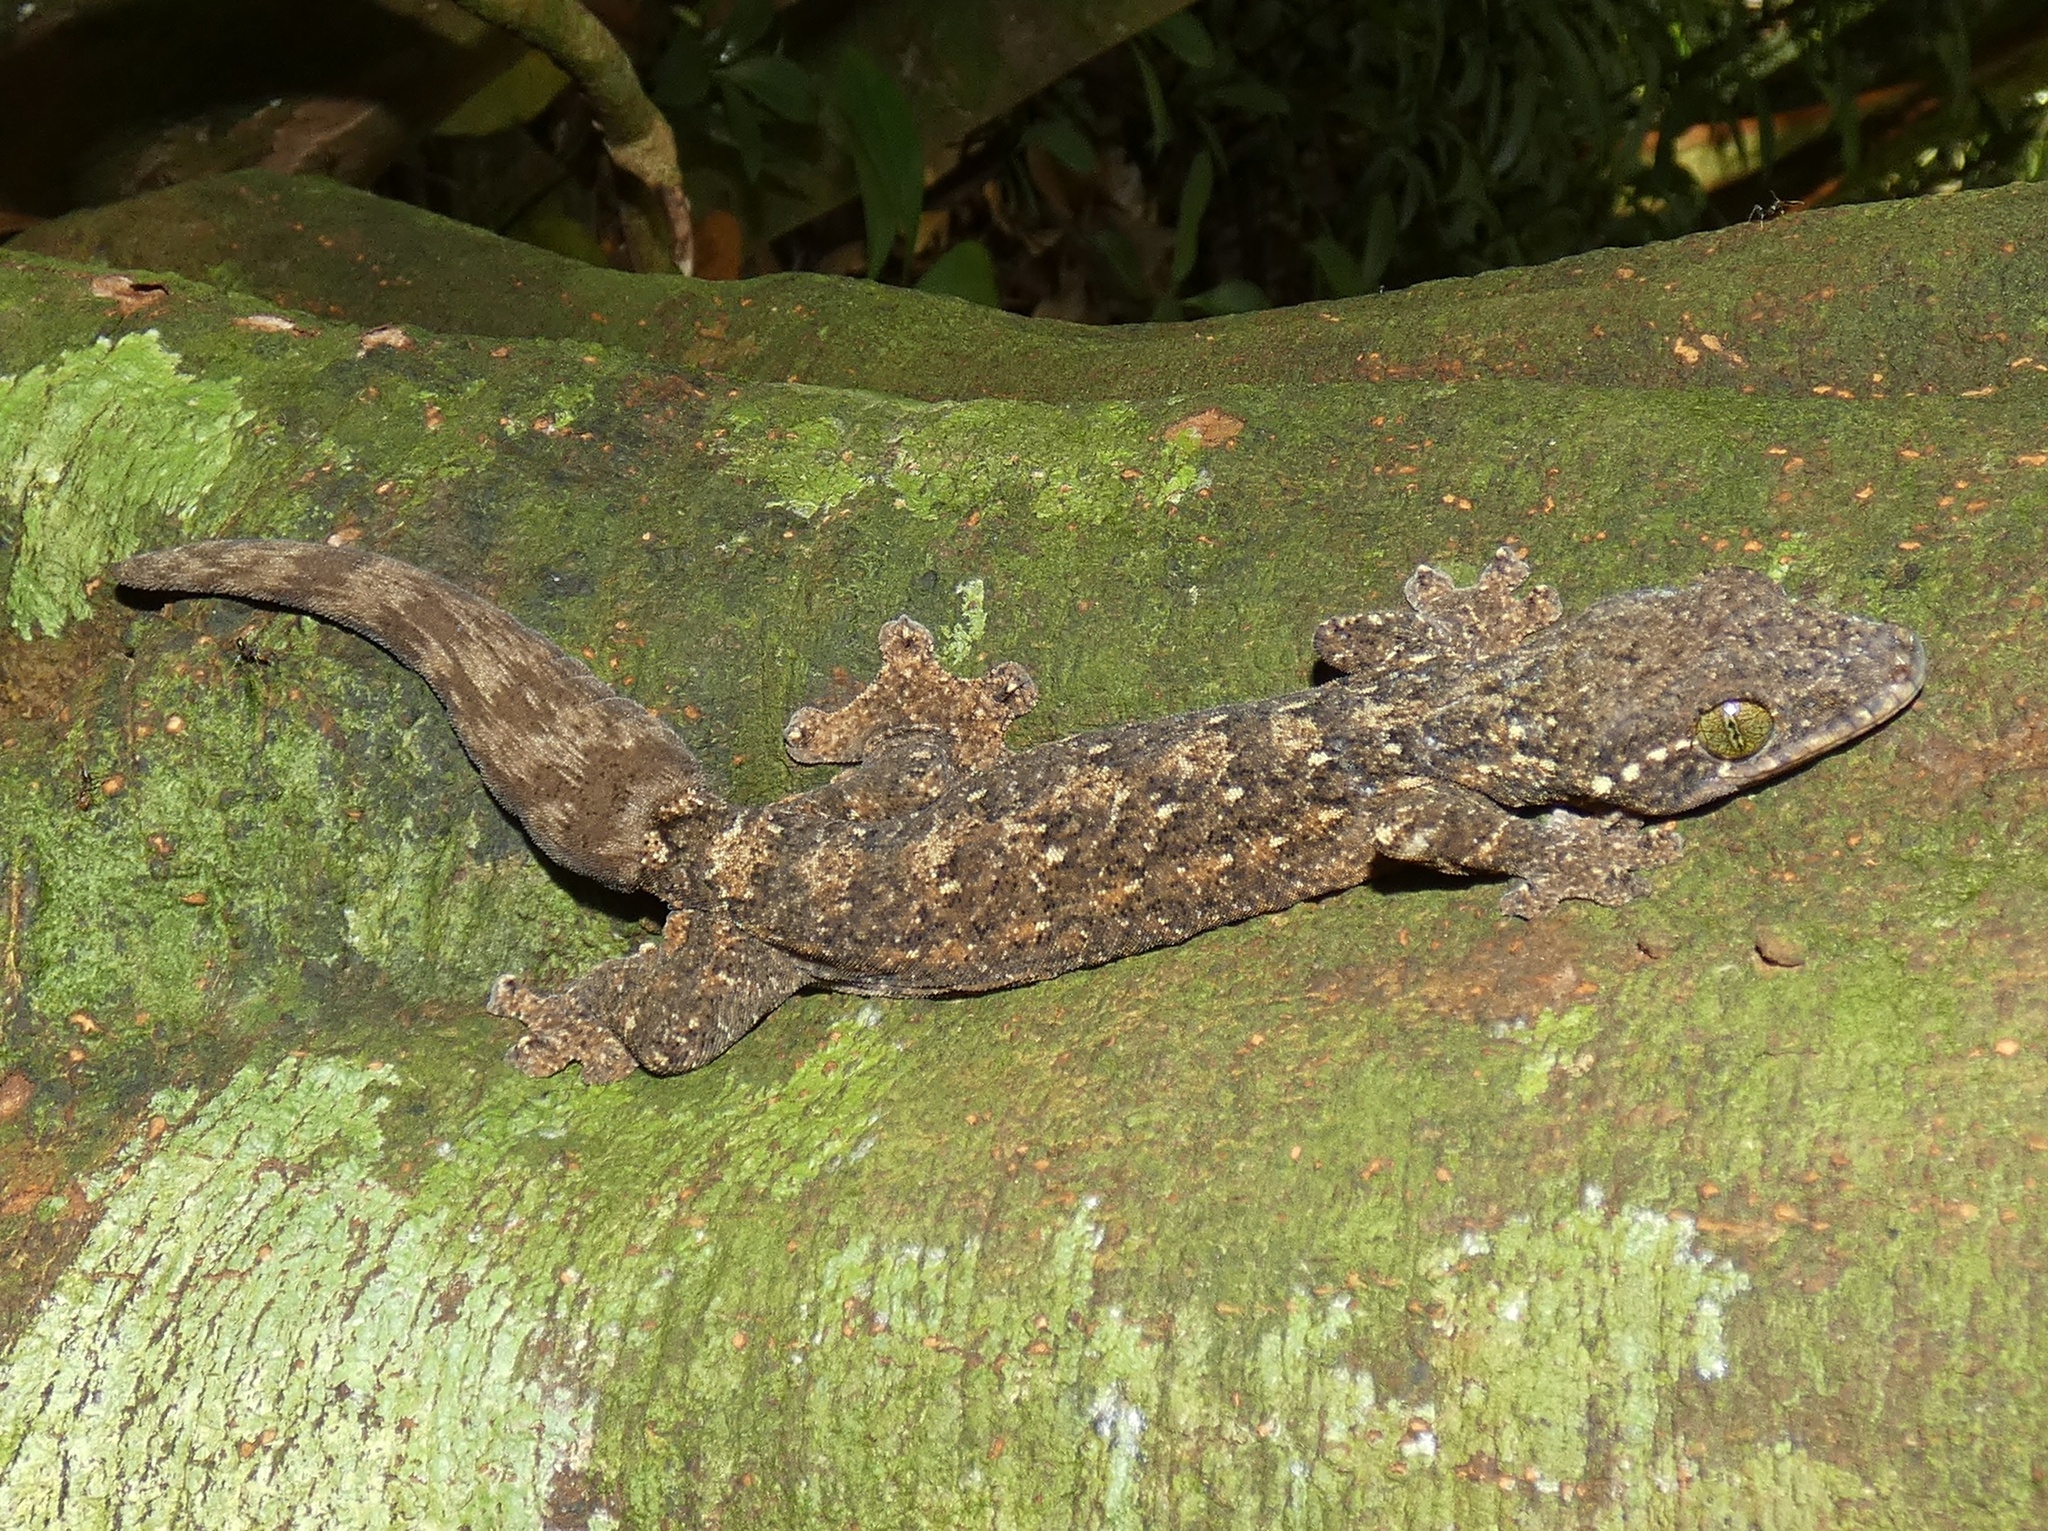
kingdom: Animalia
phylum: Chordata
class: Squamata
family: Phyllodactylidae
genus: Thecadactylus
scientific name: Thecadactylus rapicauda
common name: Turnip-tailed gecko
